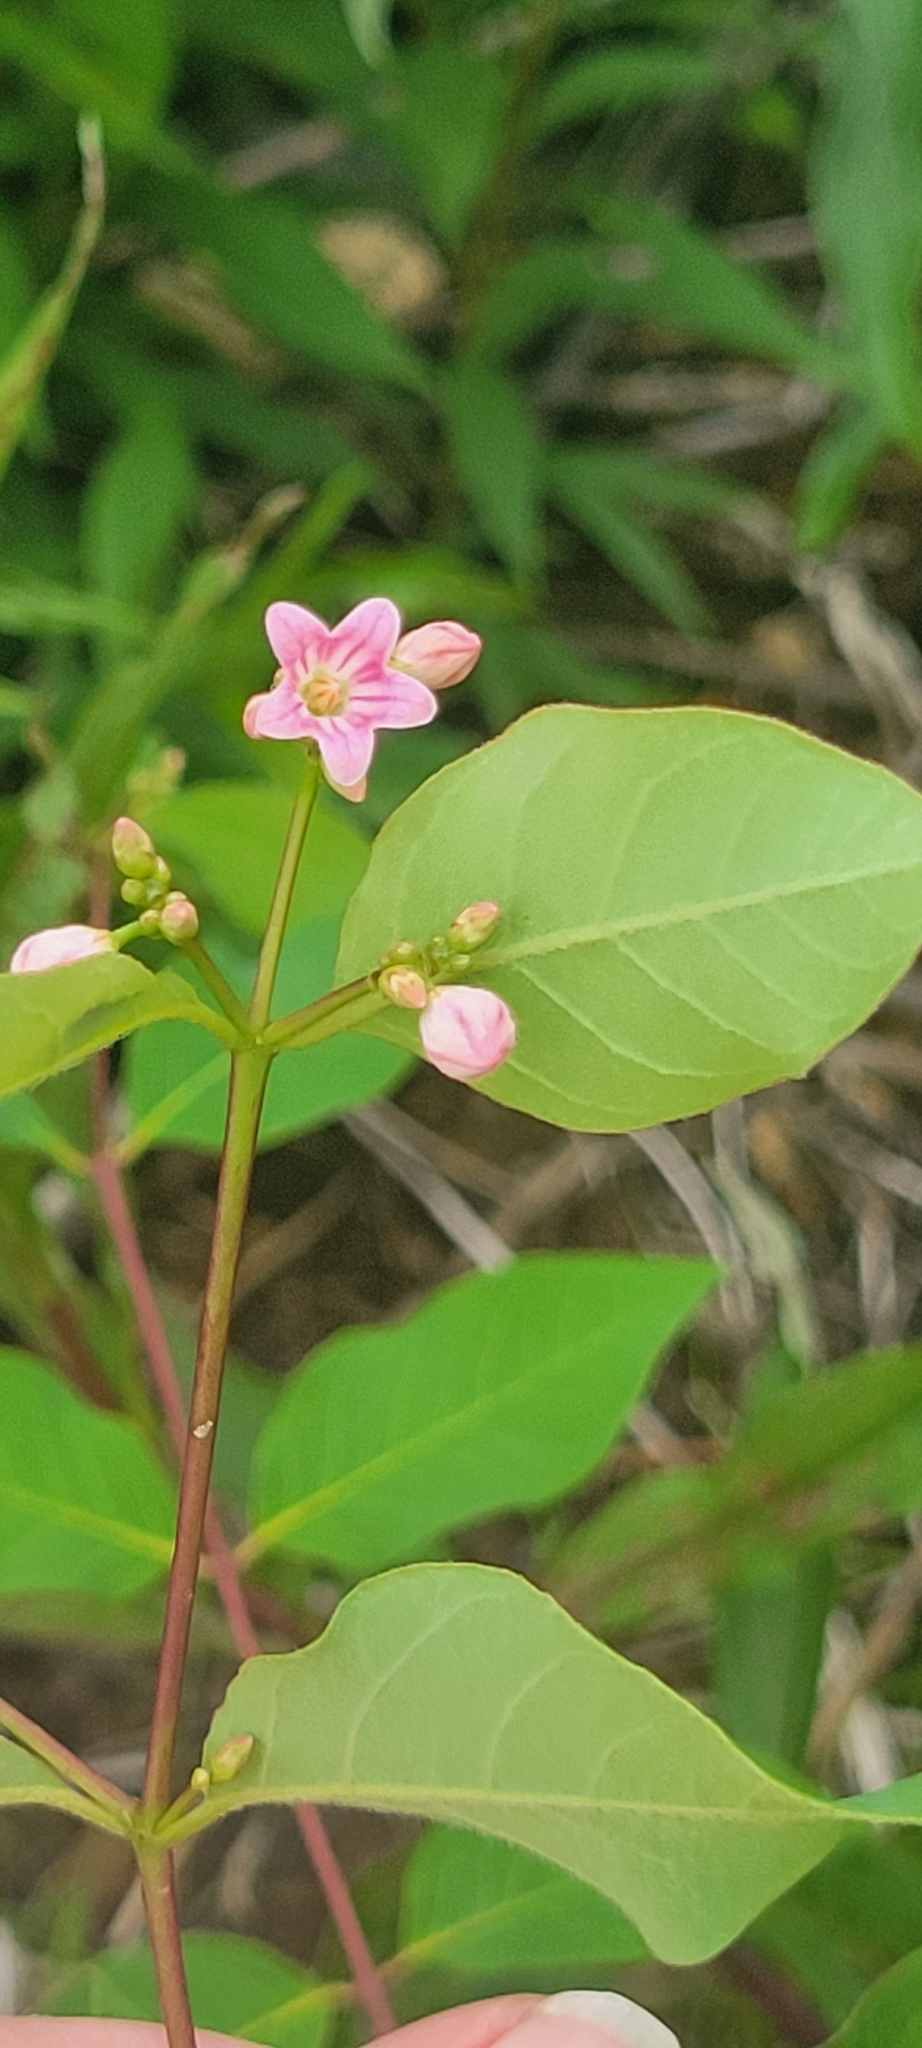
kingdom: Plantae
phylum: Tracheophyta
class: Magnoliopsida
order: Gentianales
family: Apocynaceae
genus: Apocynum
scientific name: Apocynum androsaemifolium
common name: Spreading dogbane
